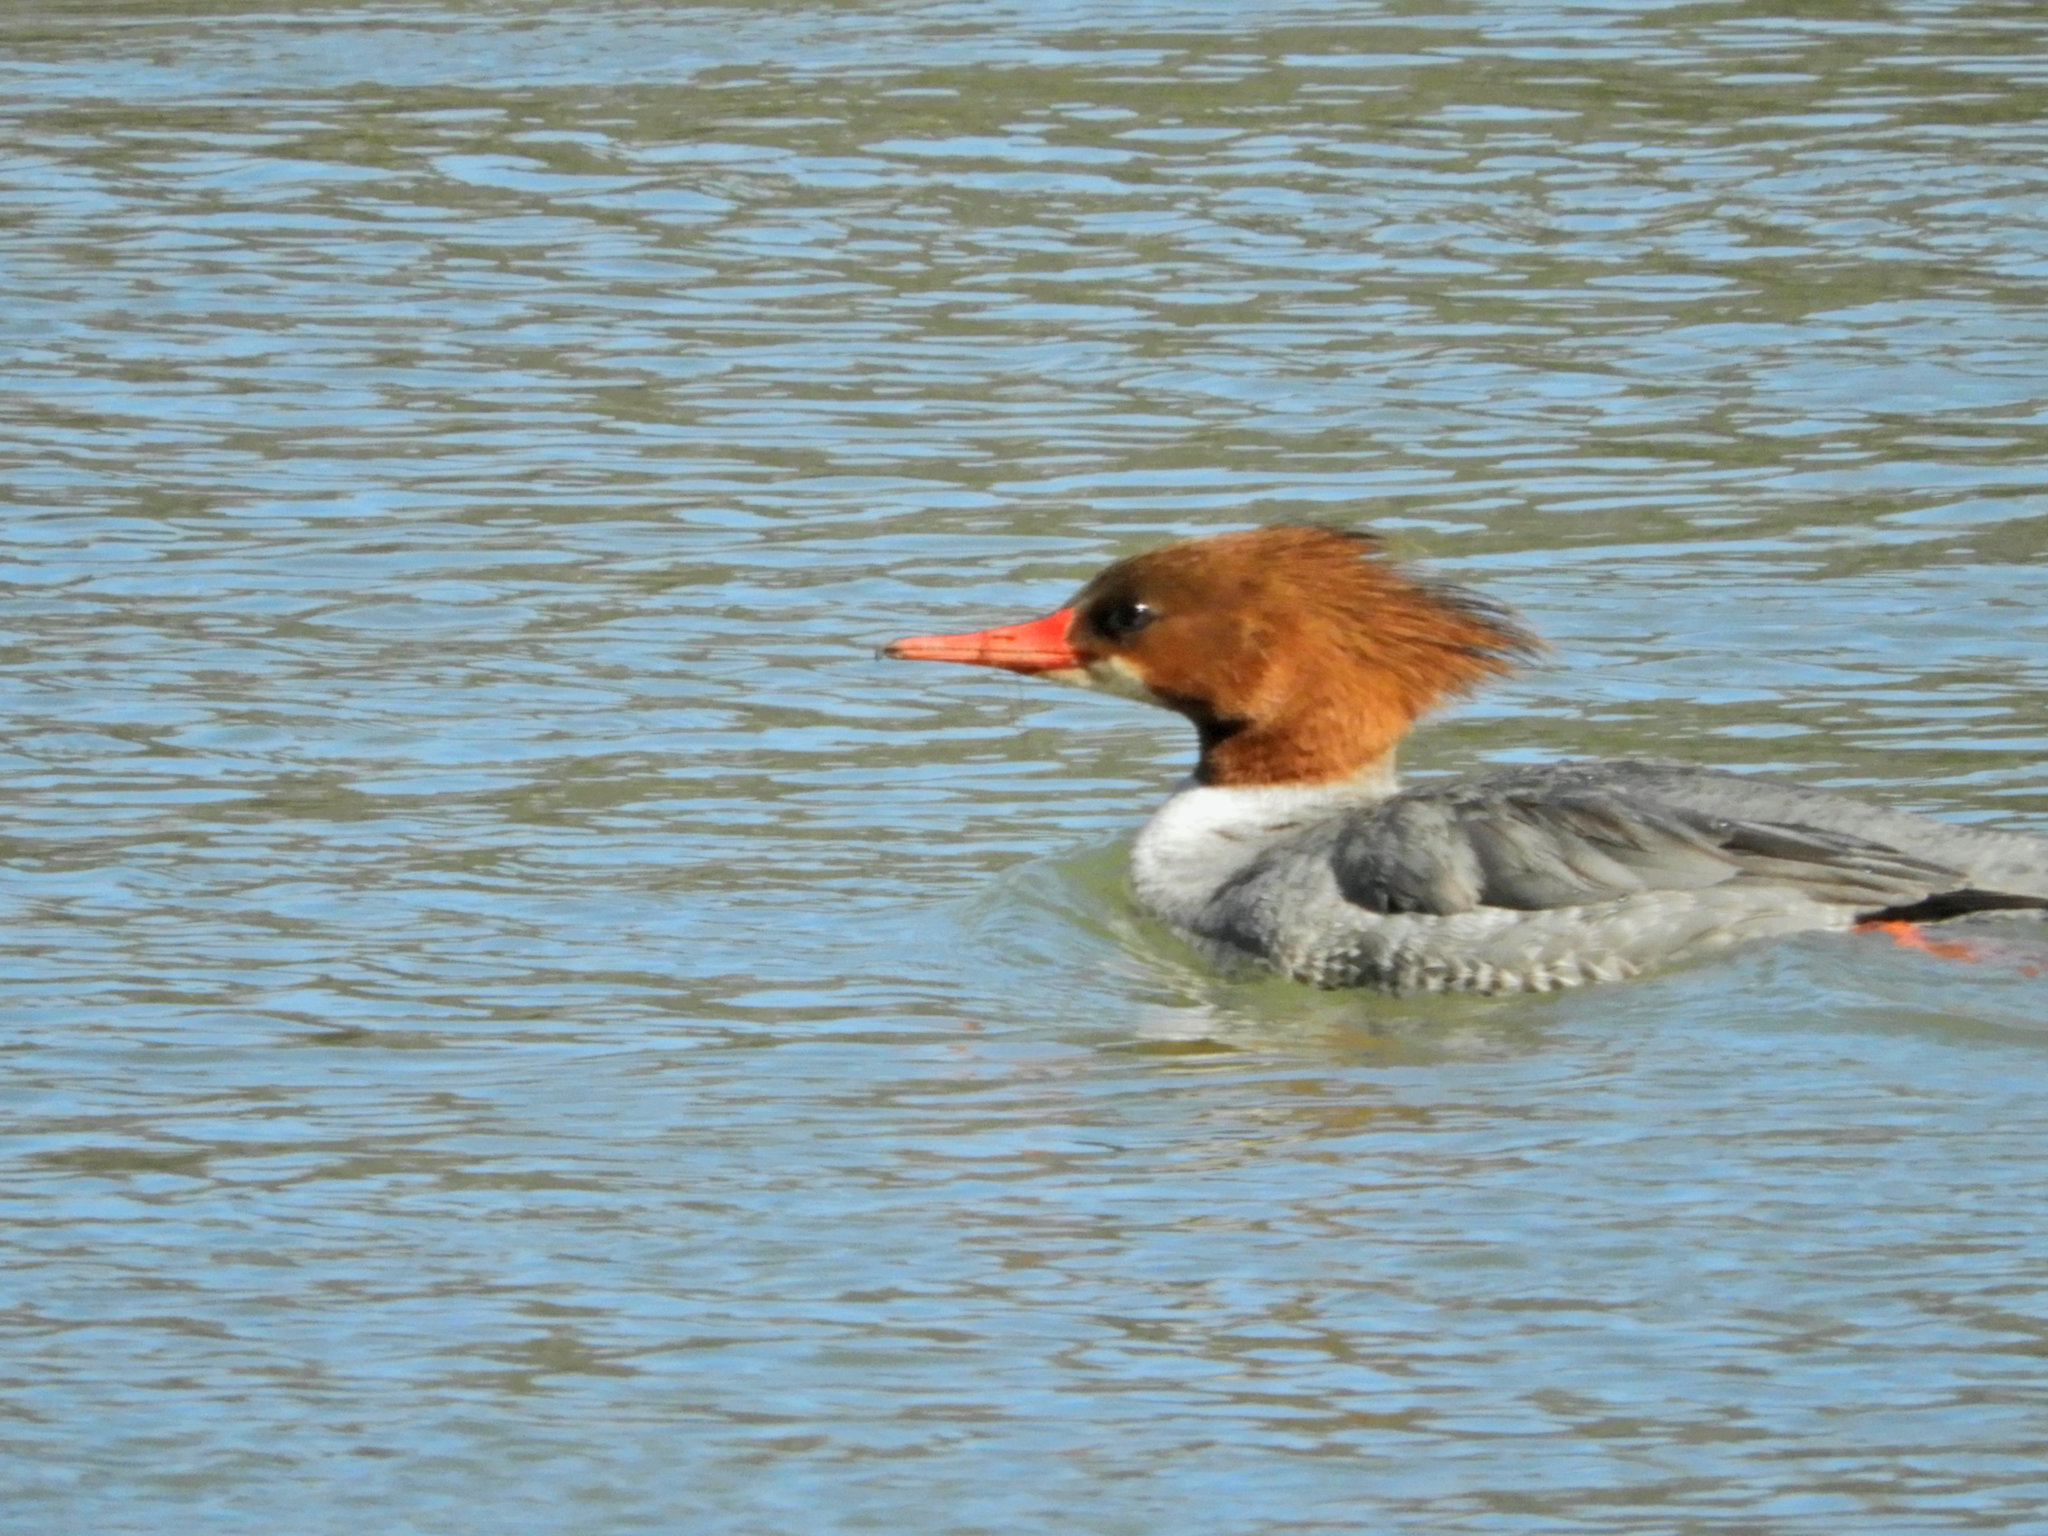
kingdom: Animalia
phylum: Chordata
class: Aves
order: Anseriformes
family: Anatidae
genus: Mergus
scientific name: Mergus merganser
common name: Common merganser
